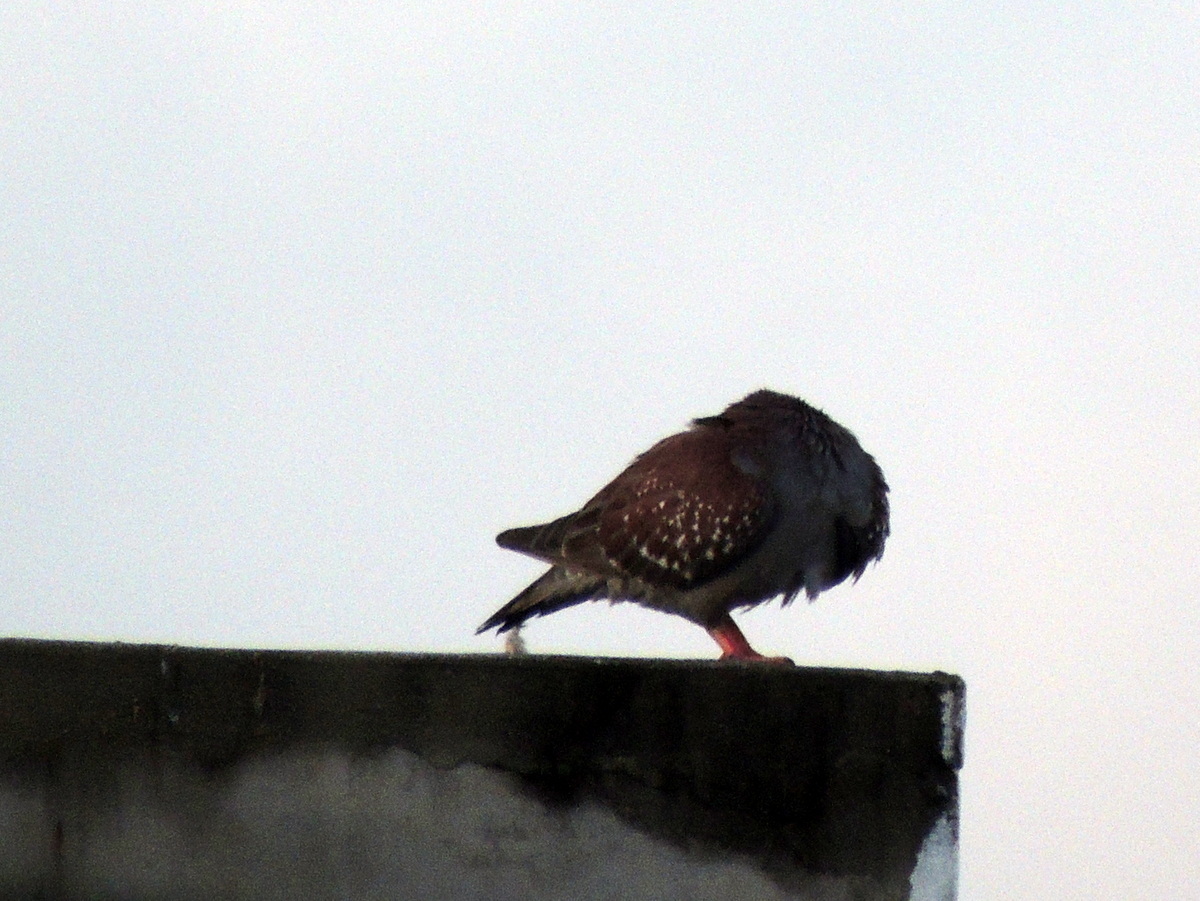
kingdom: Animalia
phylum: Chordata
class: Aves
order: Columbiformes
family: Columbidae
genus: Columba
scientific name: Columba guinea
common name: Speckled pigeon
